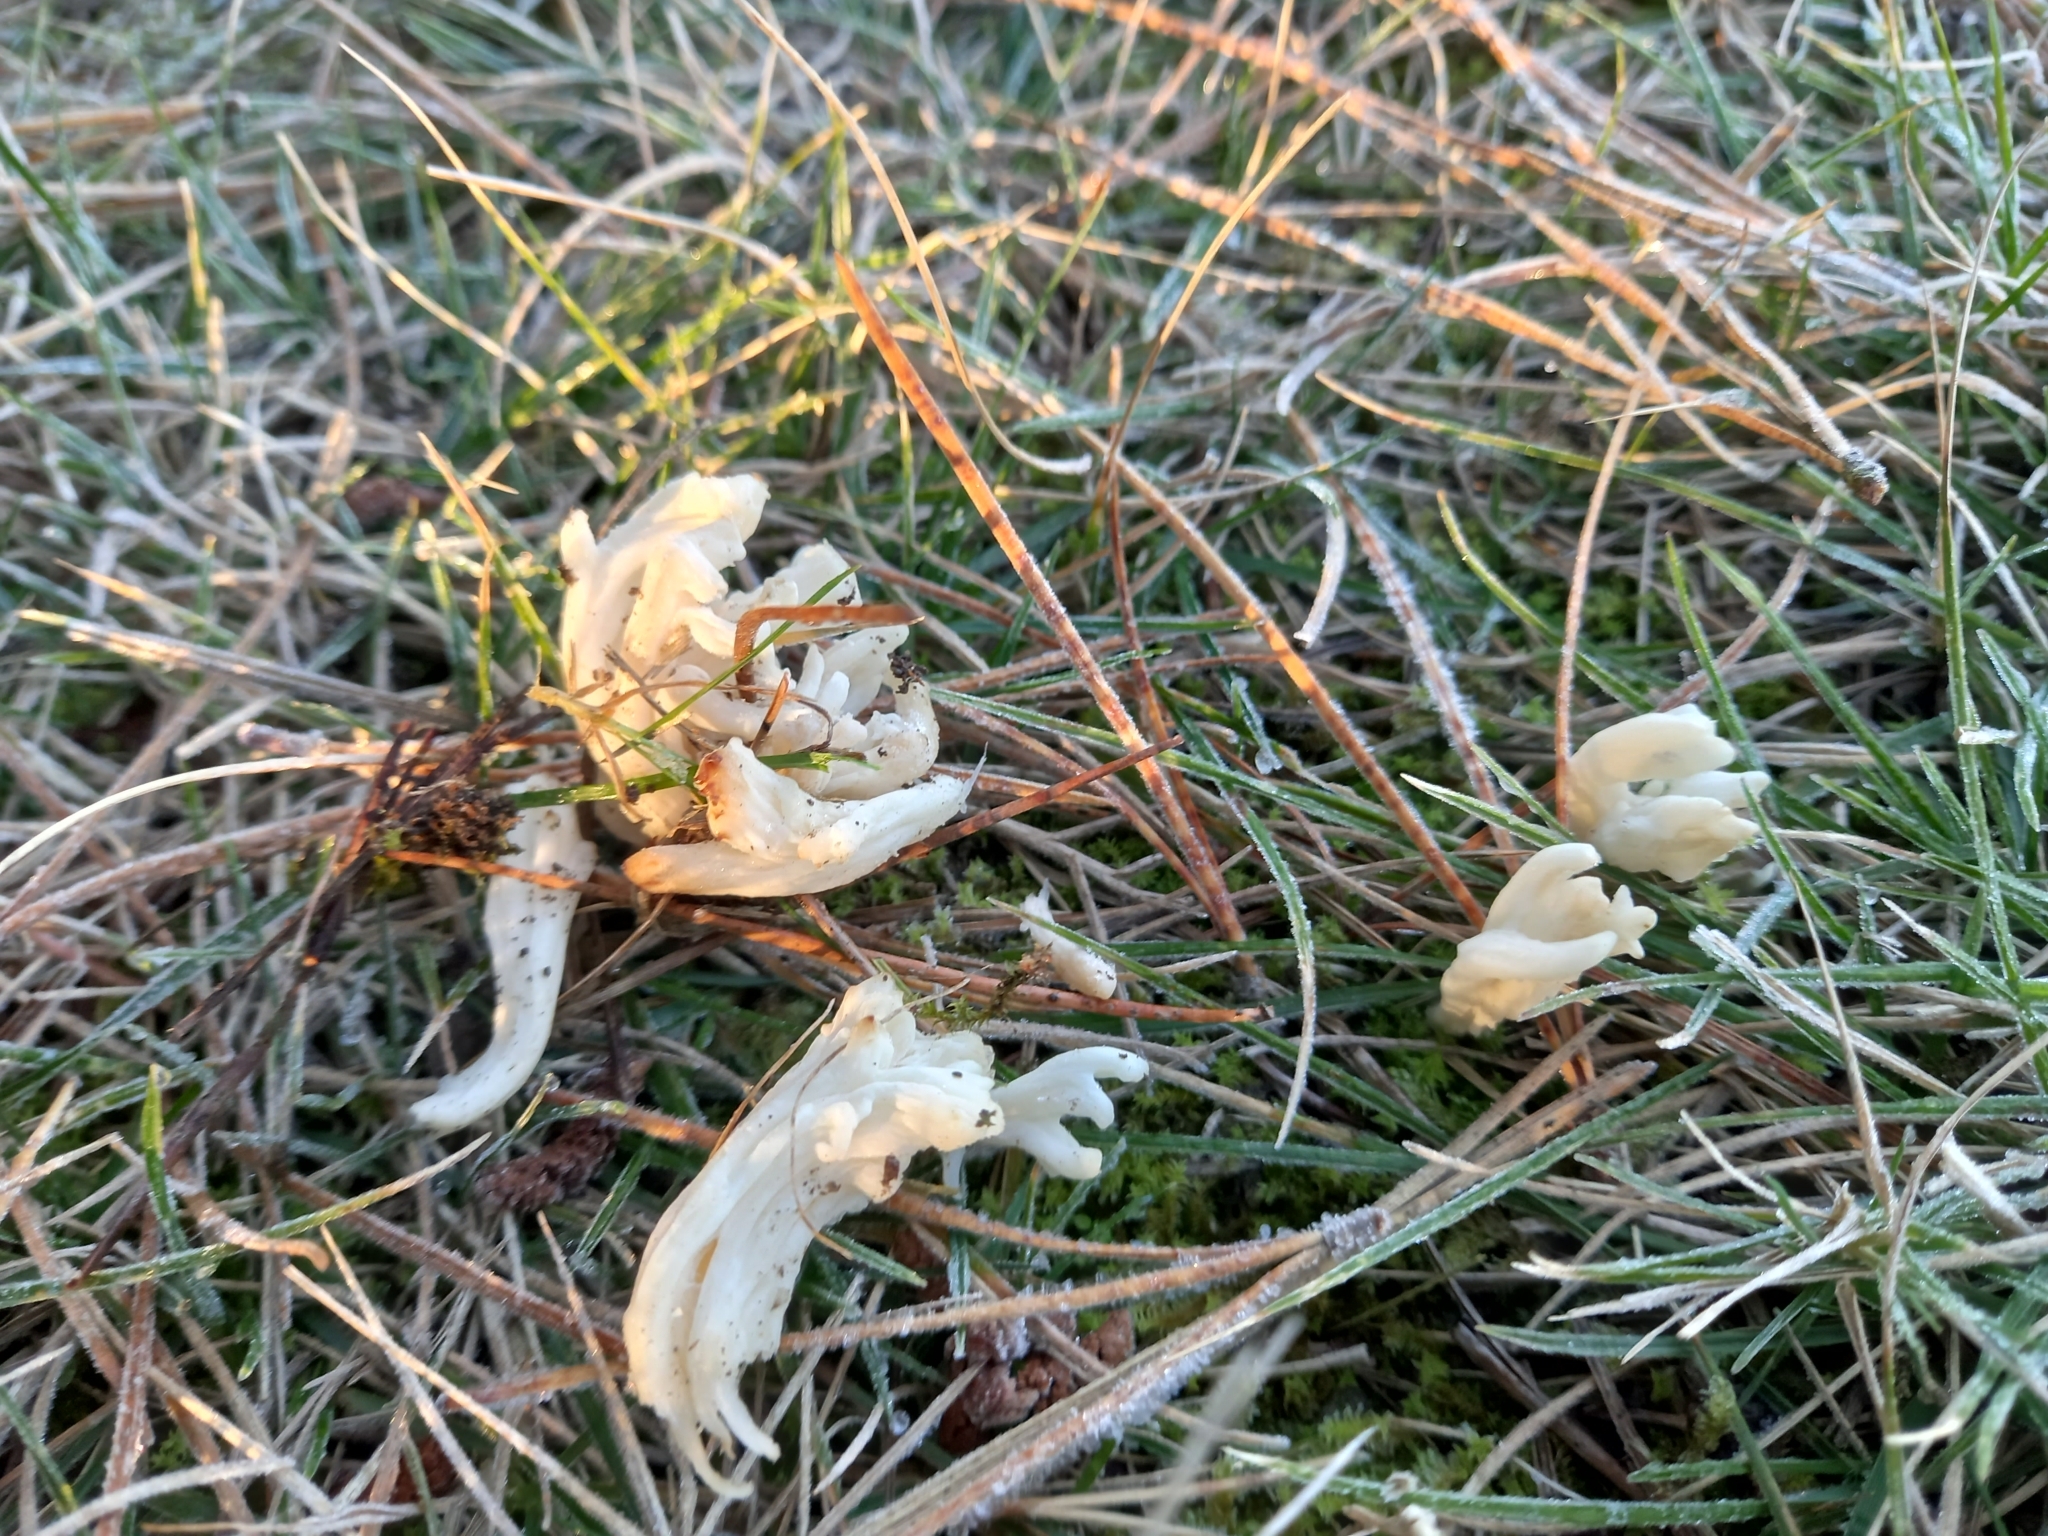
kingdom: Fungi
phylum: Basidiomycota
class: Agaricomycetes
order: Cantharellales
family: Hydnaceae
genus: Clavulina
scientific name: Clavulina rugosa
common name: Wrinkled club
